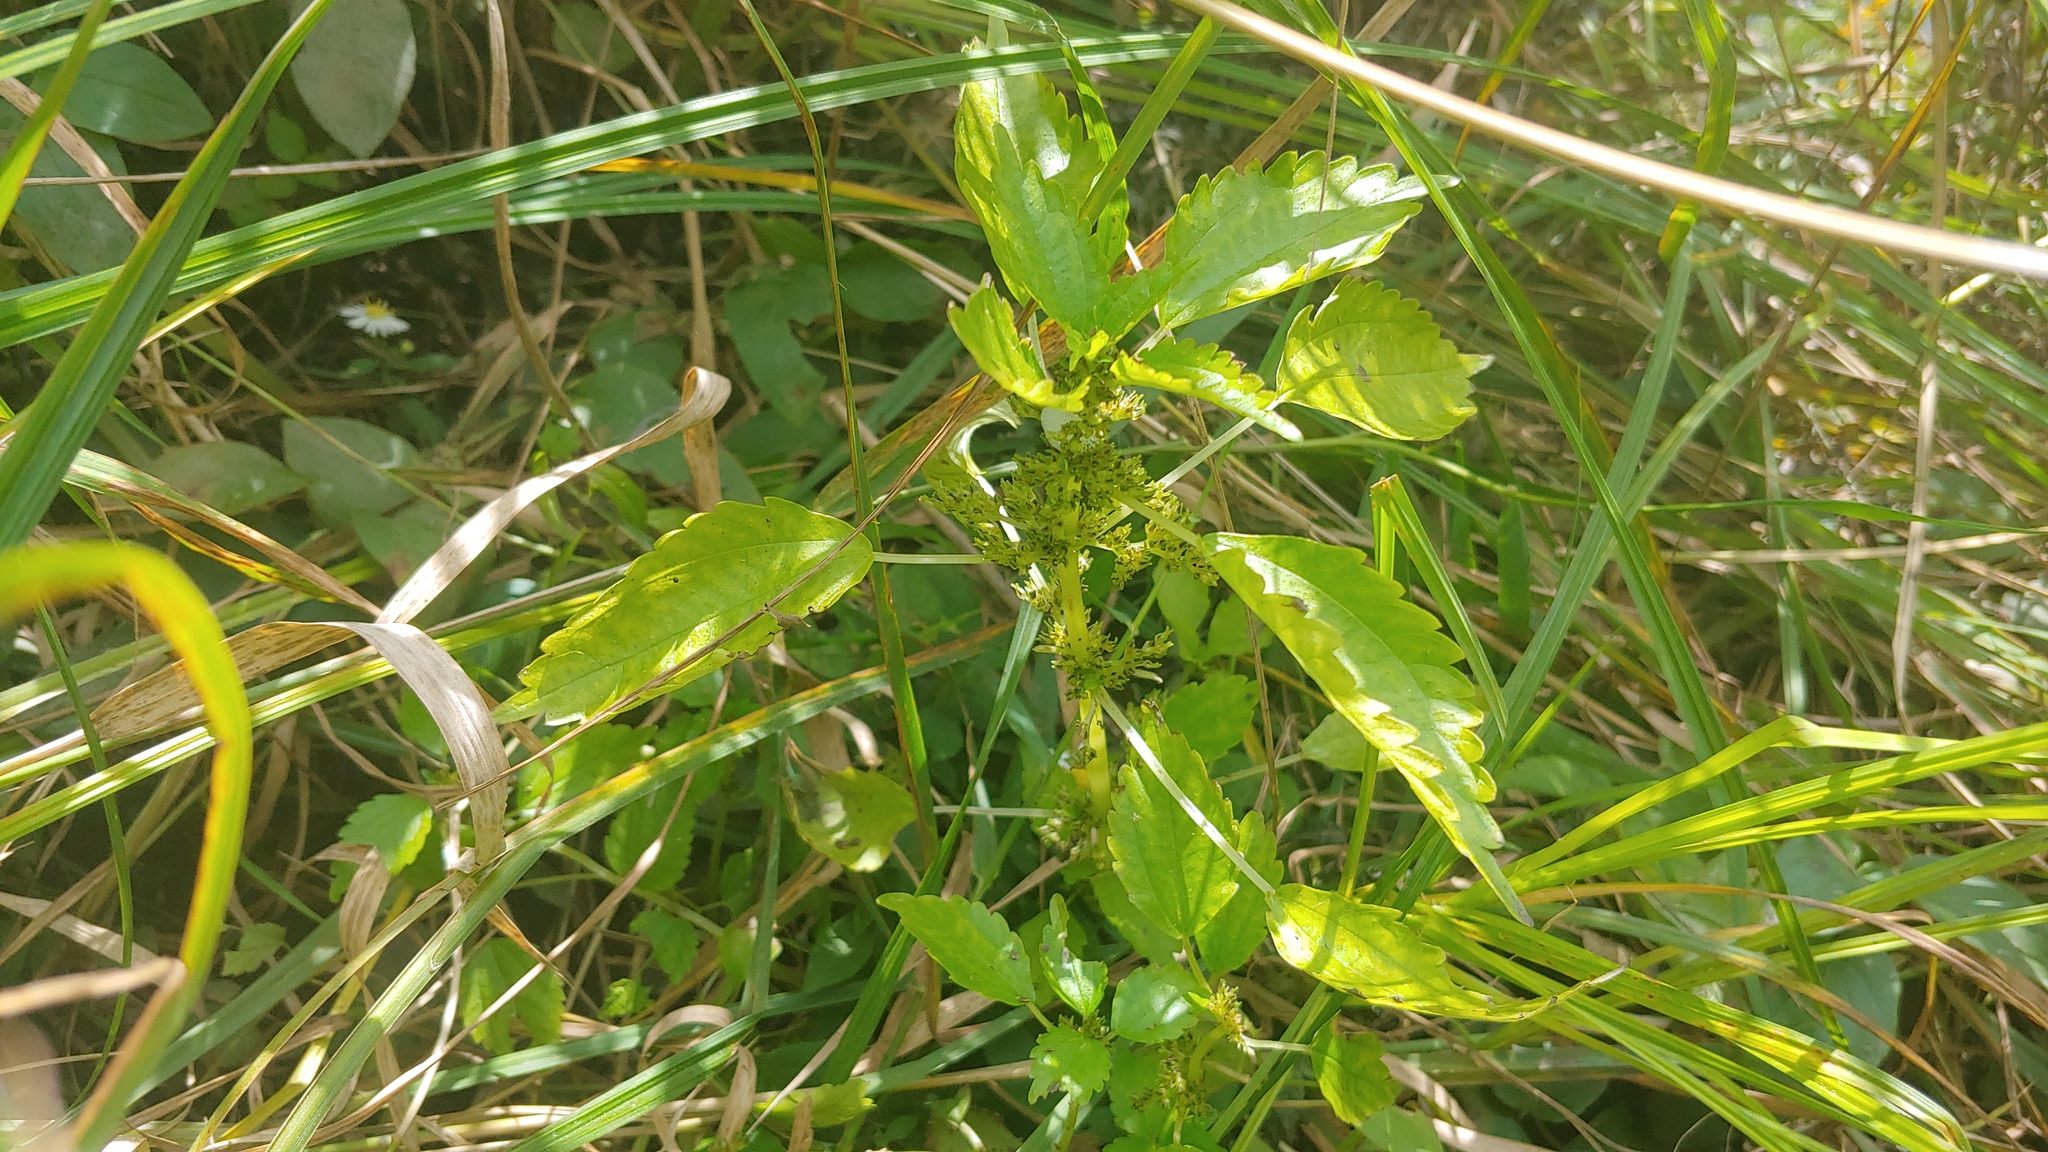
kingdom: Plantae
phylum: Tracheophyta
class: Magnoliopsida
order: Rosales
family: Urticaceae
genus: Pilea
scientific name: Pilea fontana
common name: Clearweed
